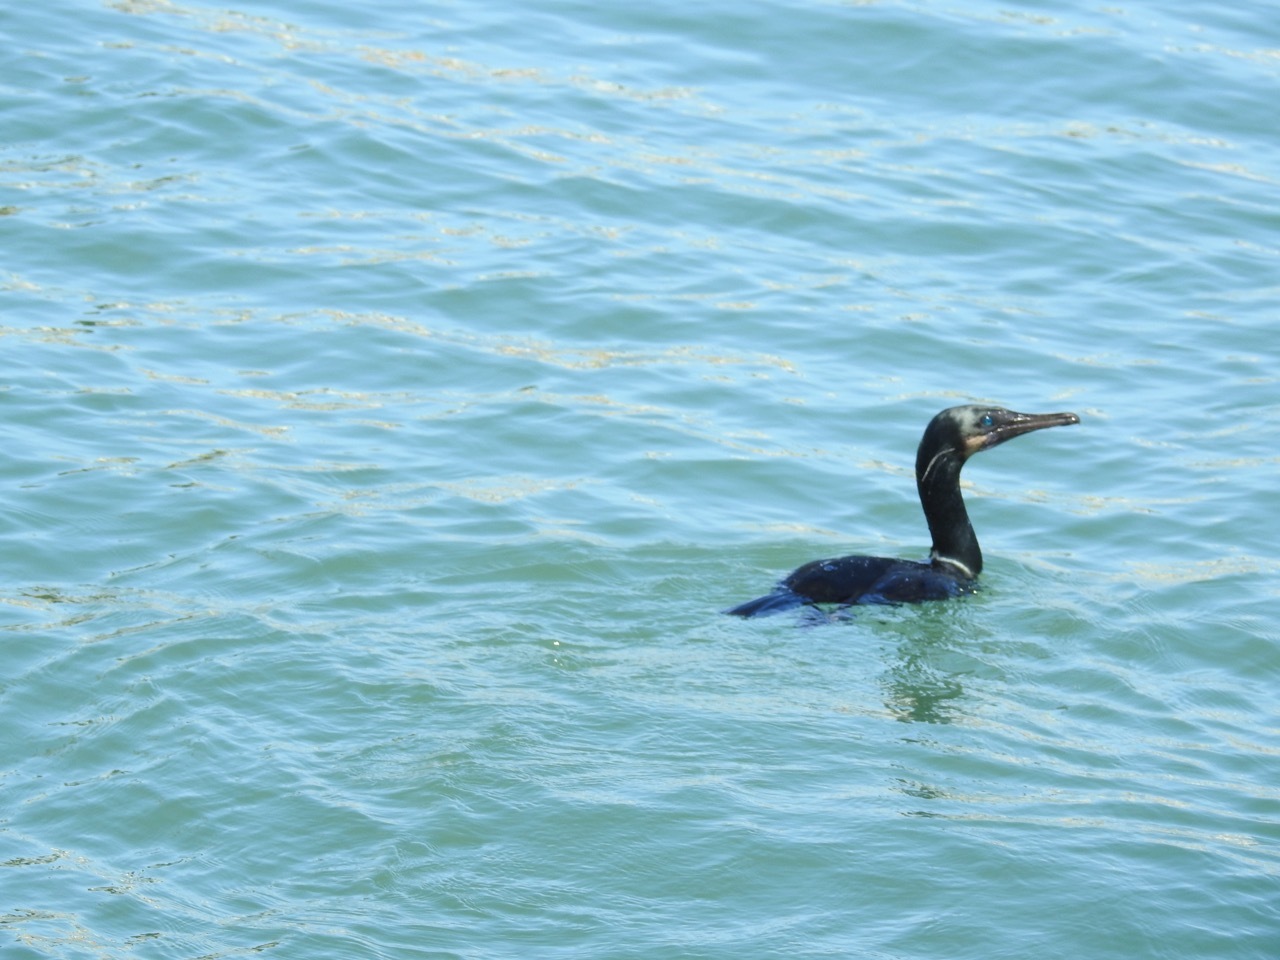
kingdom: Animalia
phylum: Chordata
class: Aves
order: Suliformes
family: Phalacrocoracidae
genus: Urile
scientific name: Urile penicillatus
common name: Brandt's cormorant
